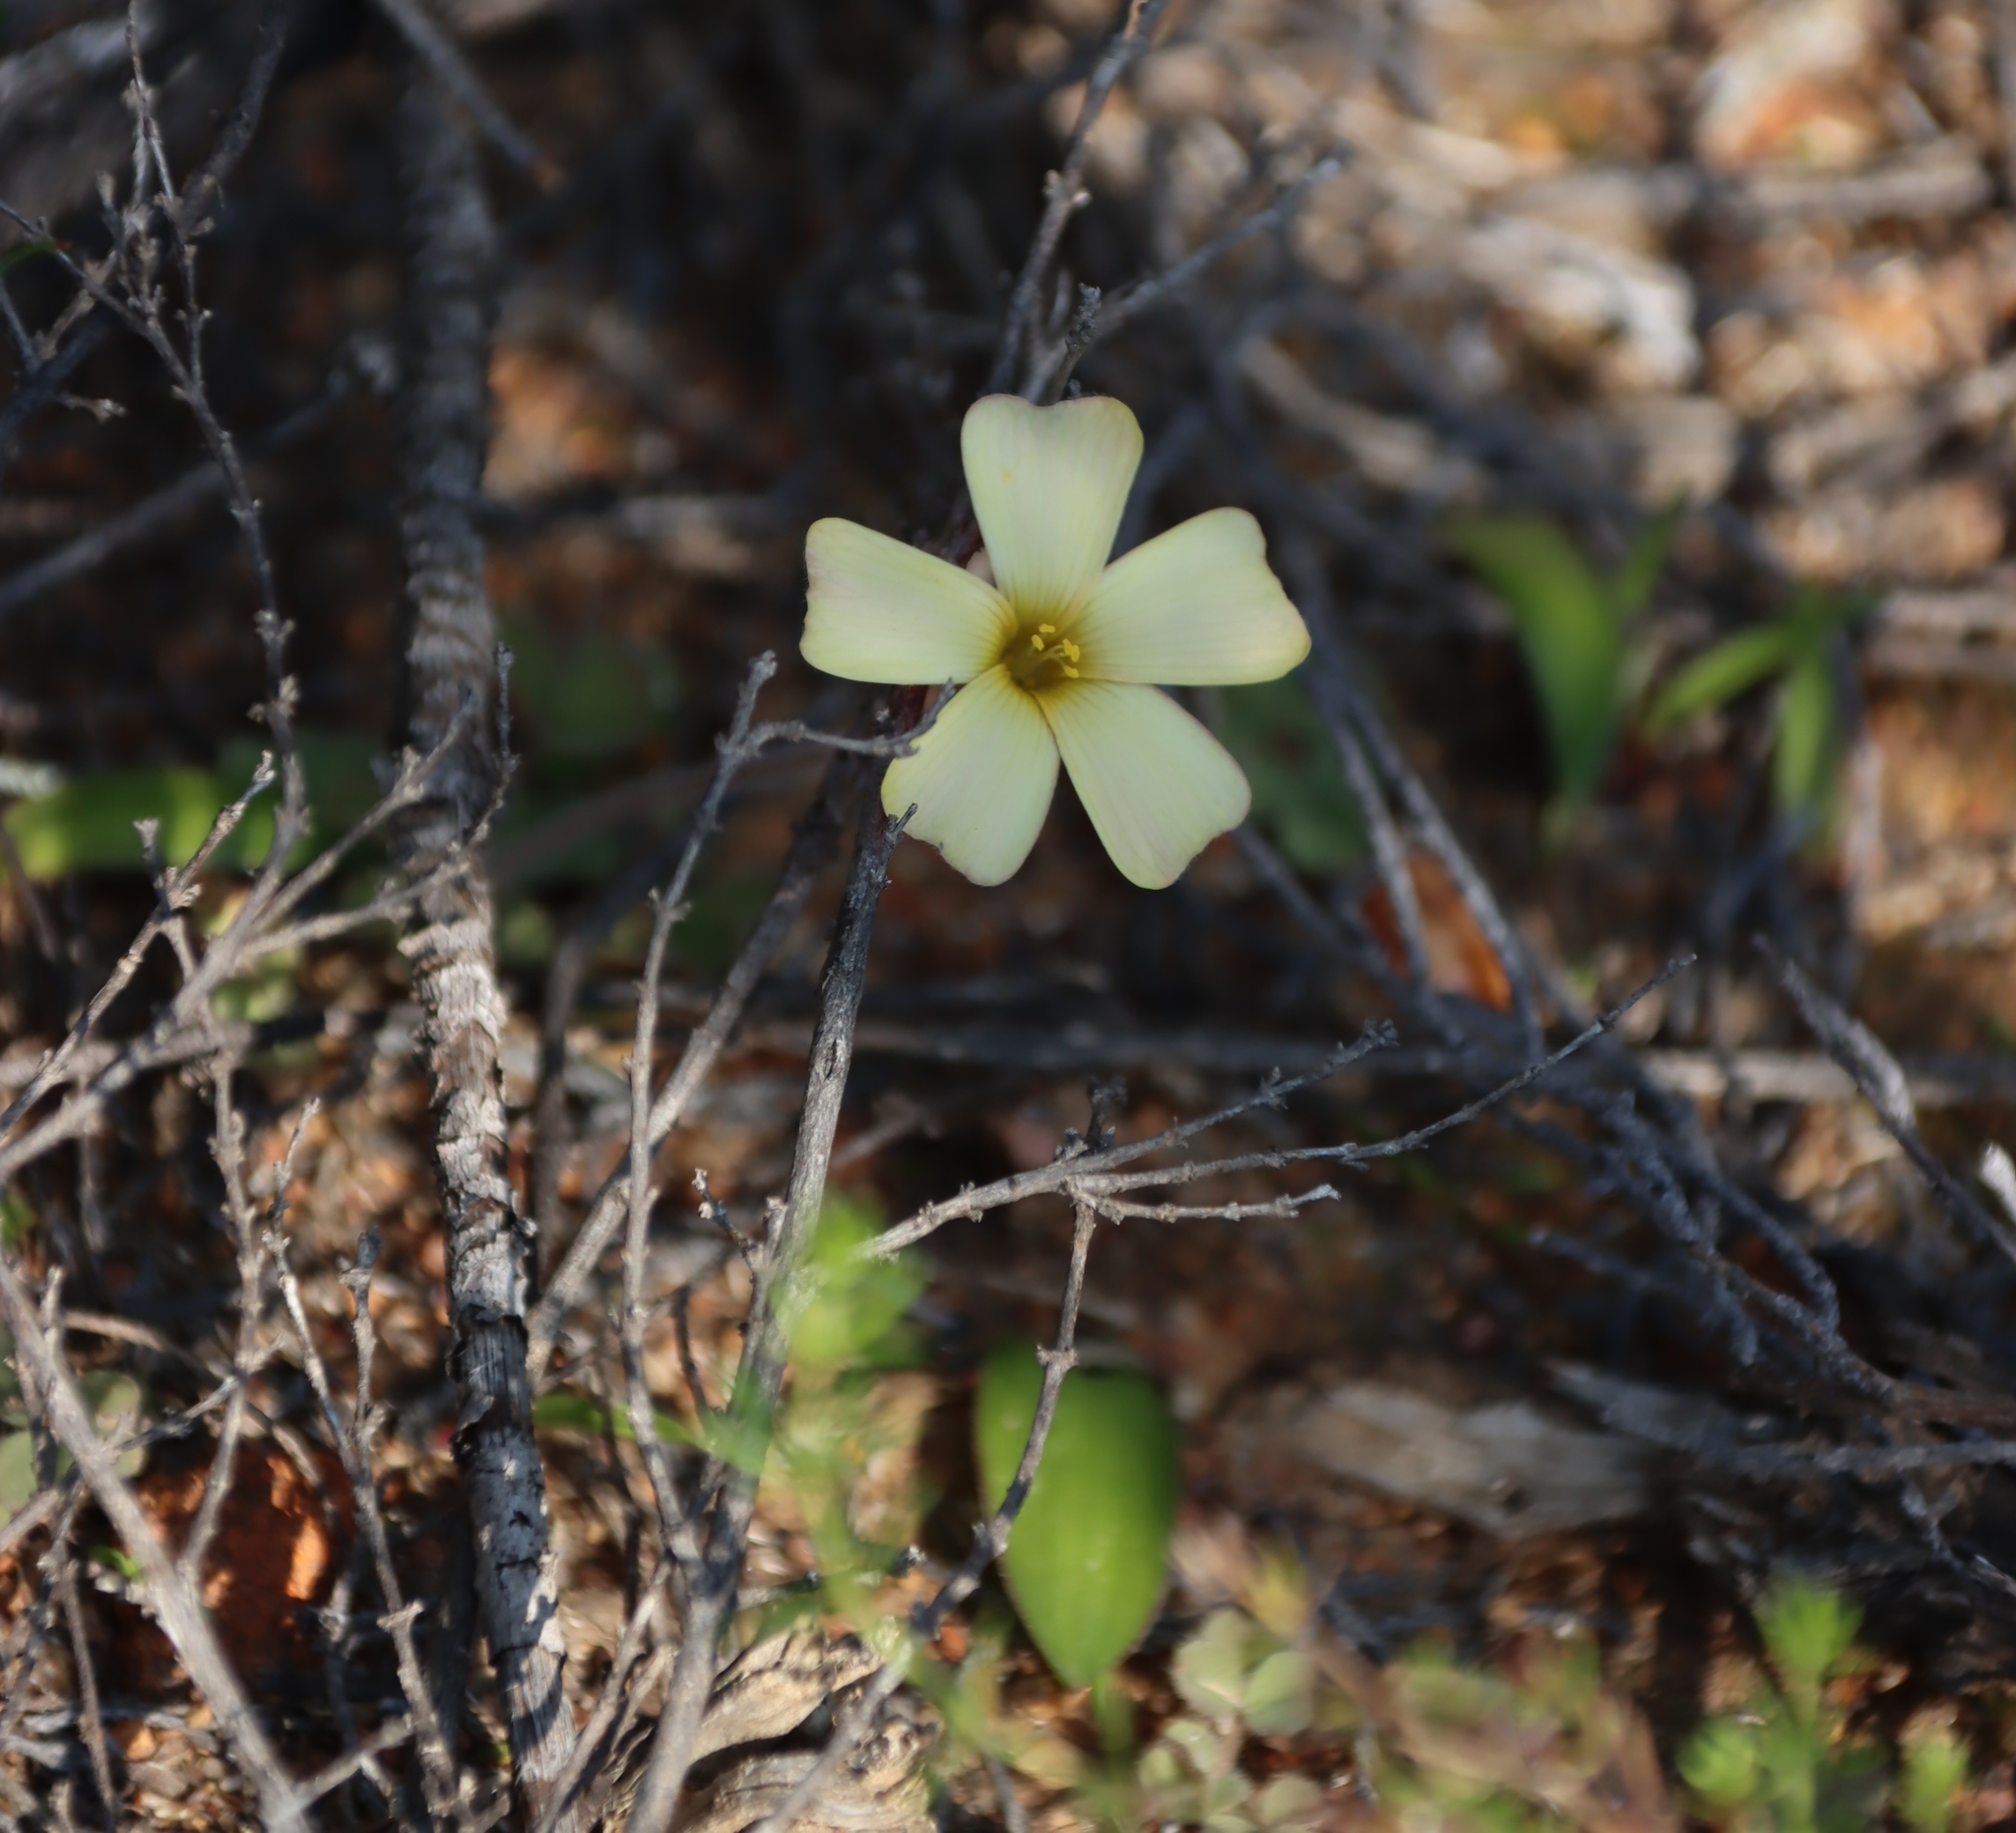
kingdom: Plantae
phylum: Tracheophyta
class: Magnoliopsida
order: Oxalidales
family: Oxalidaceae
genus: Oxalis
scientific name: Oxalis obtusa
